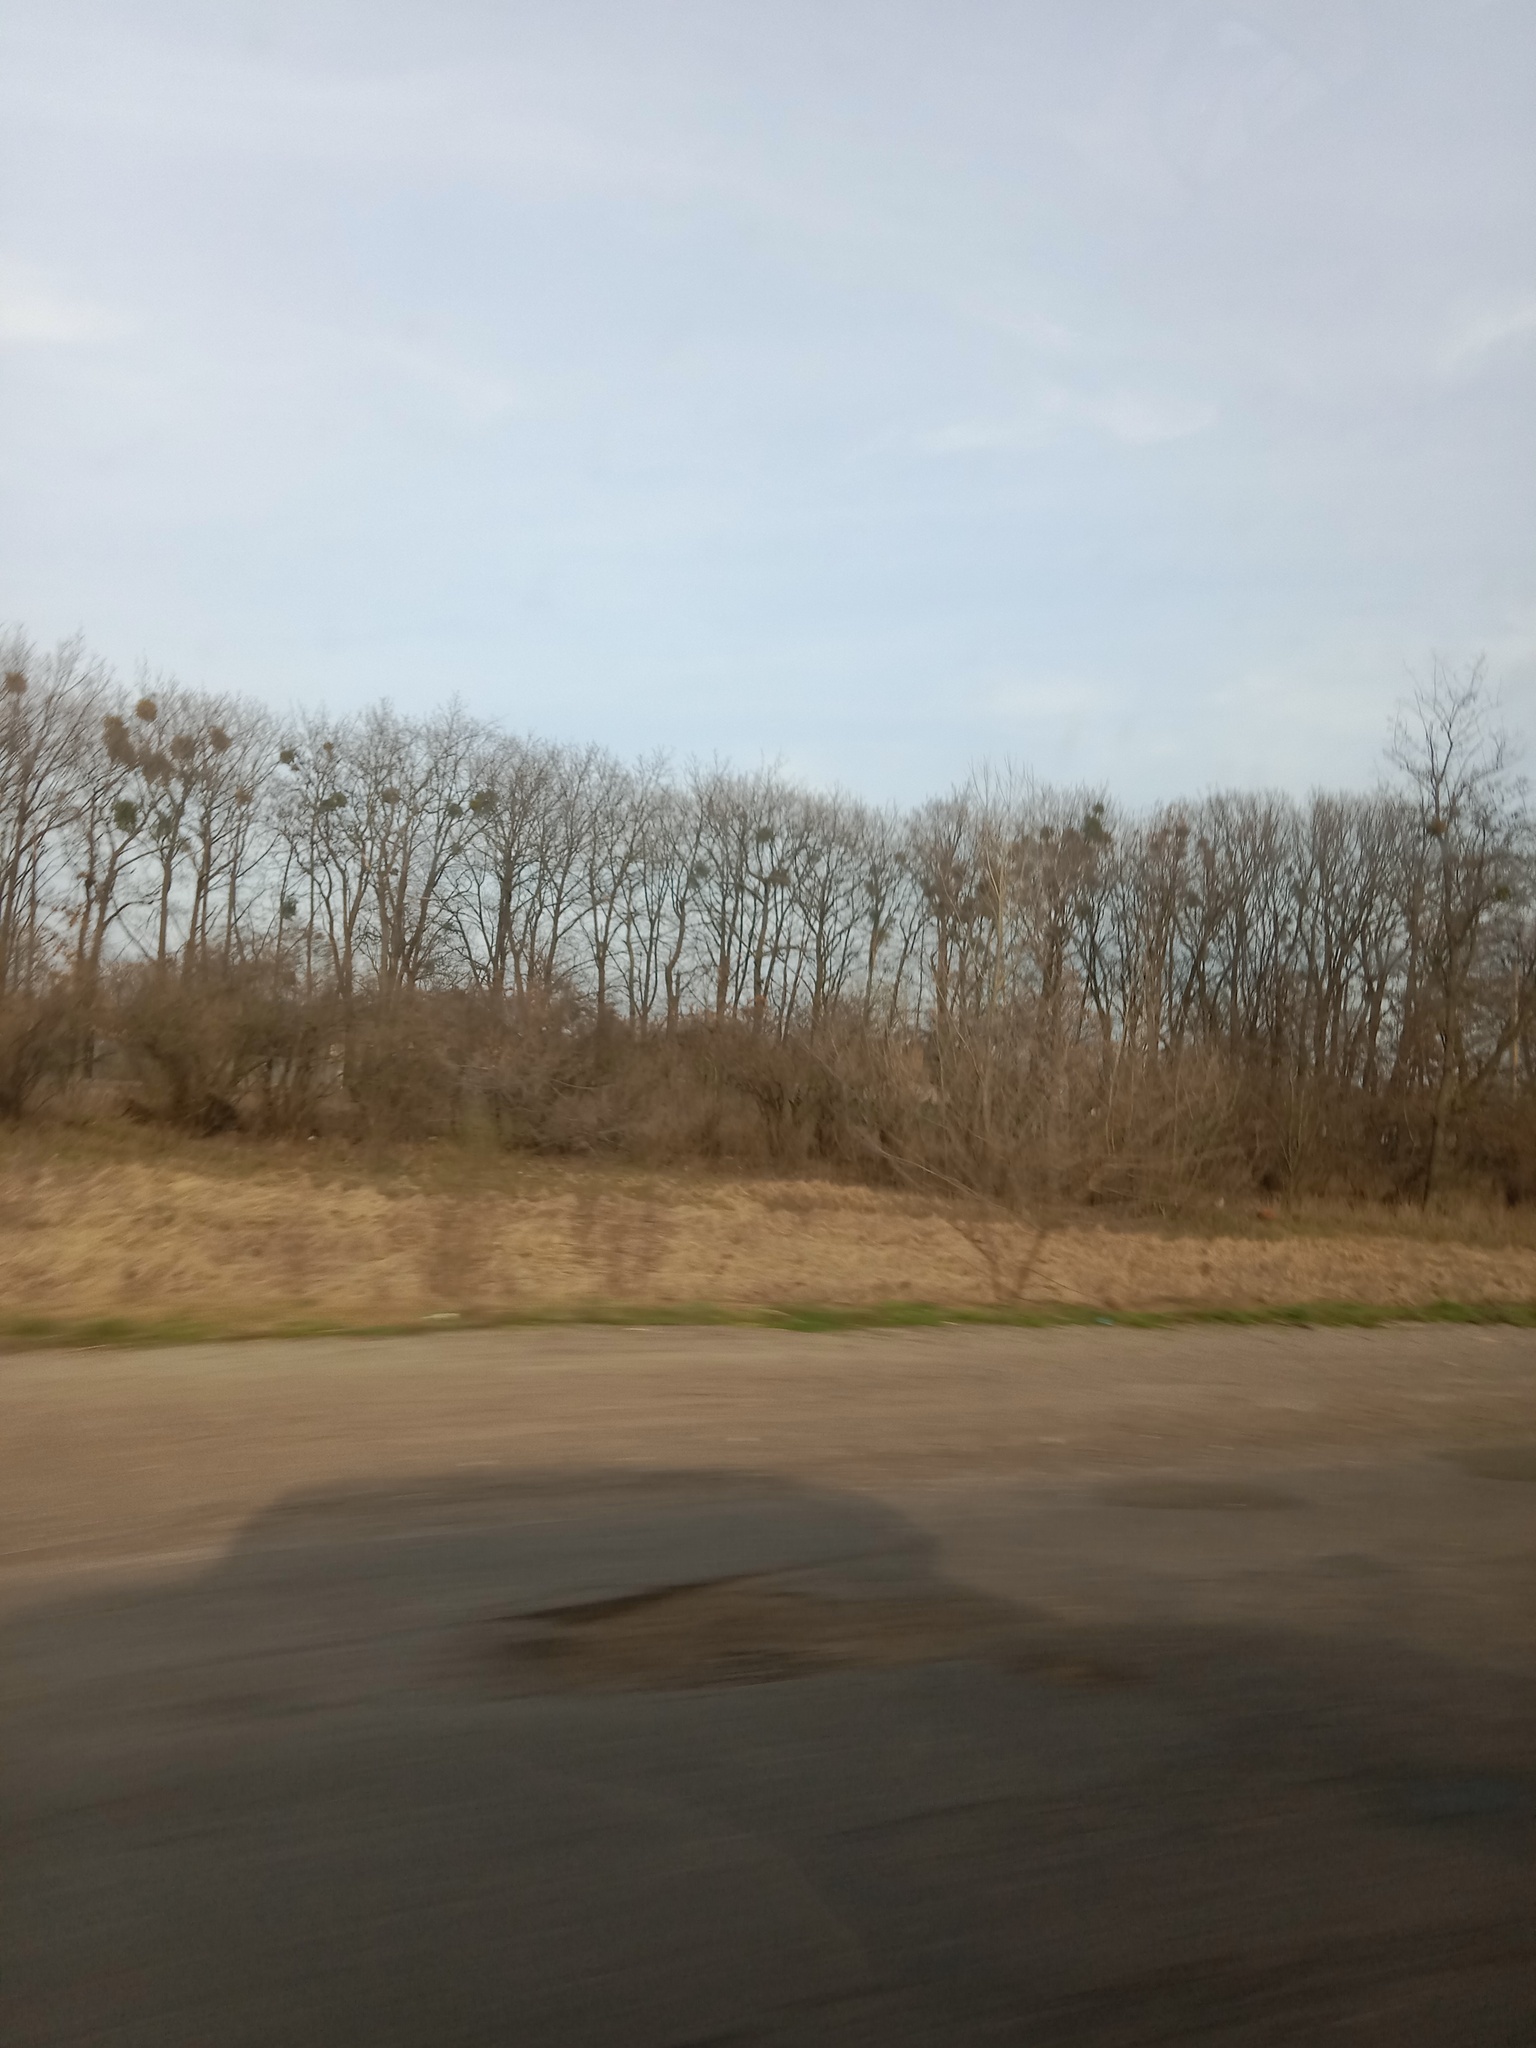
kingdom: Plantae
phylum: Tracheophyta
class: Magnoliopsida
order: Santalales
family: Viscaceae
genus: Viscum
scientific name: Viscum album
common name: Mistletoe
